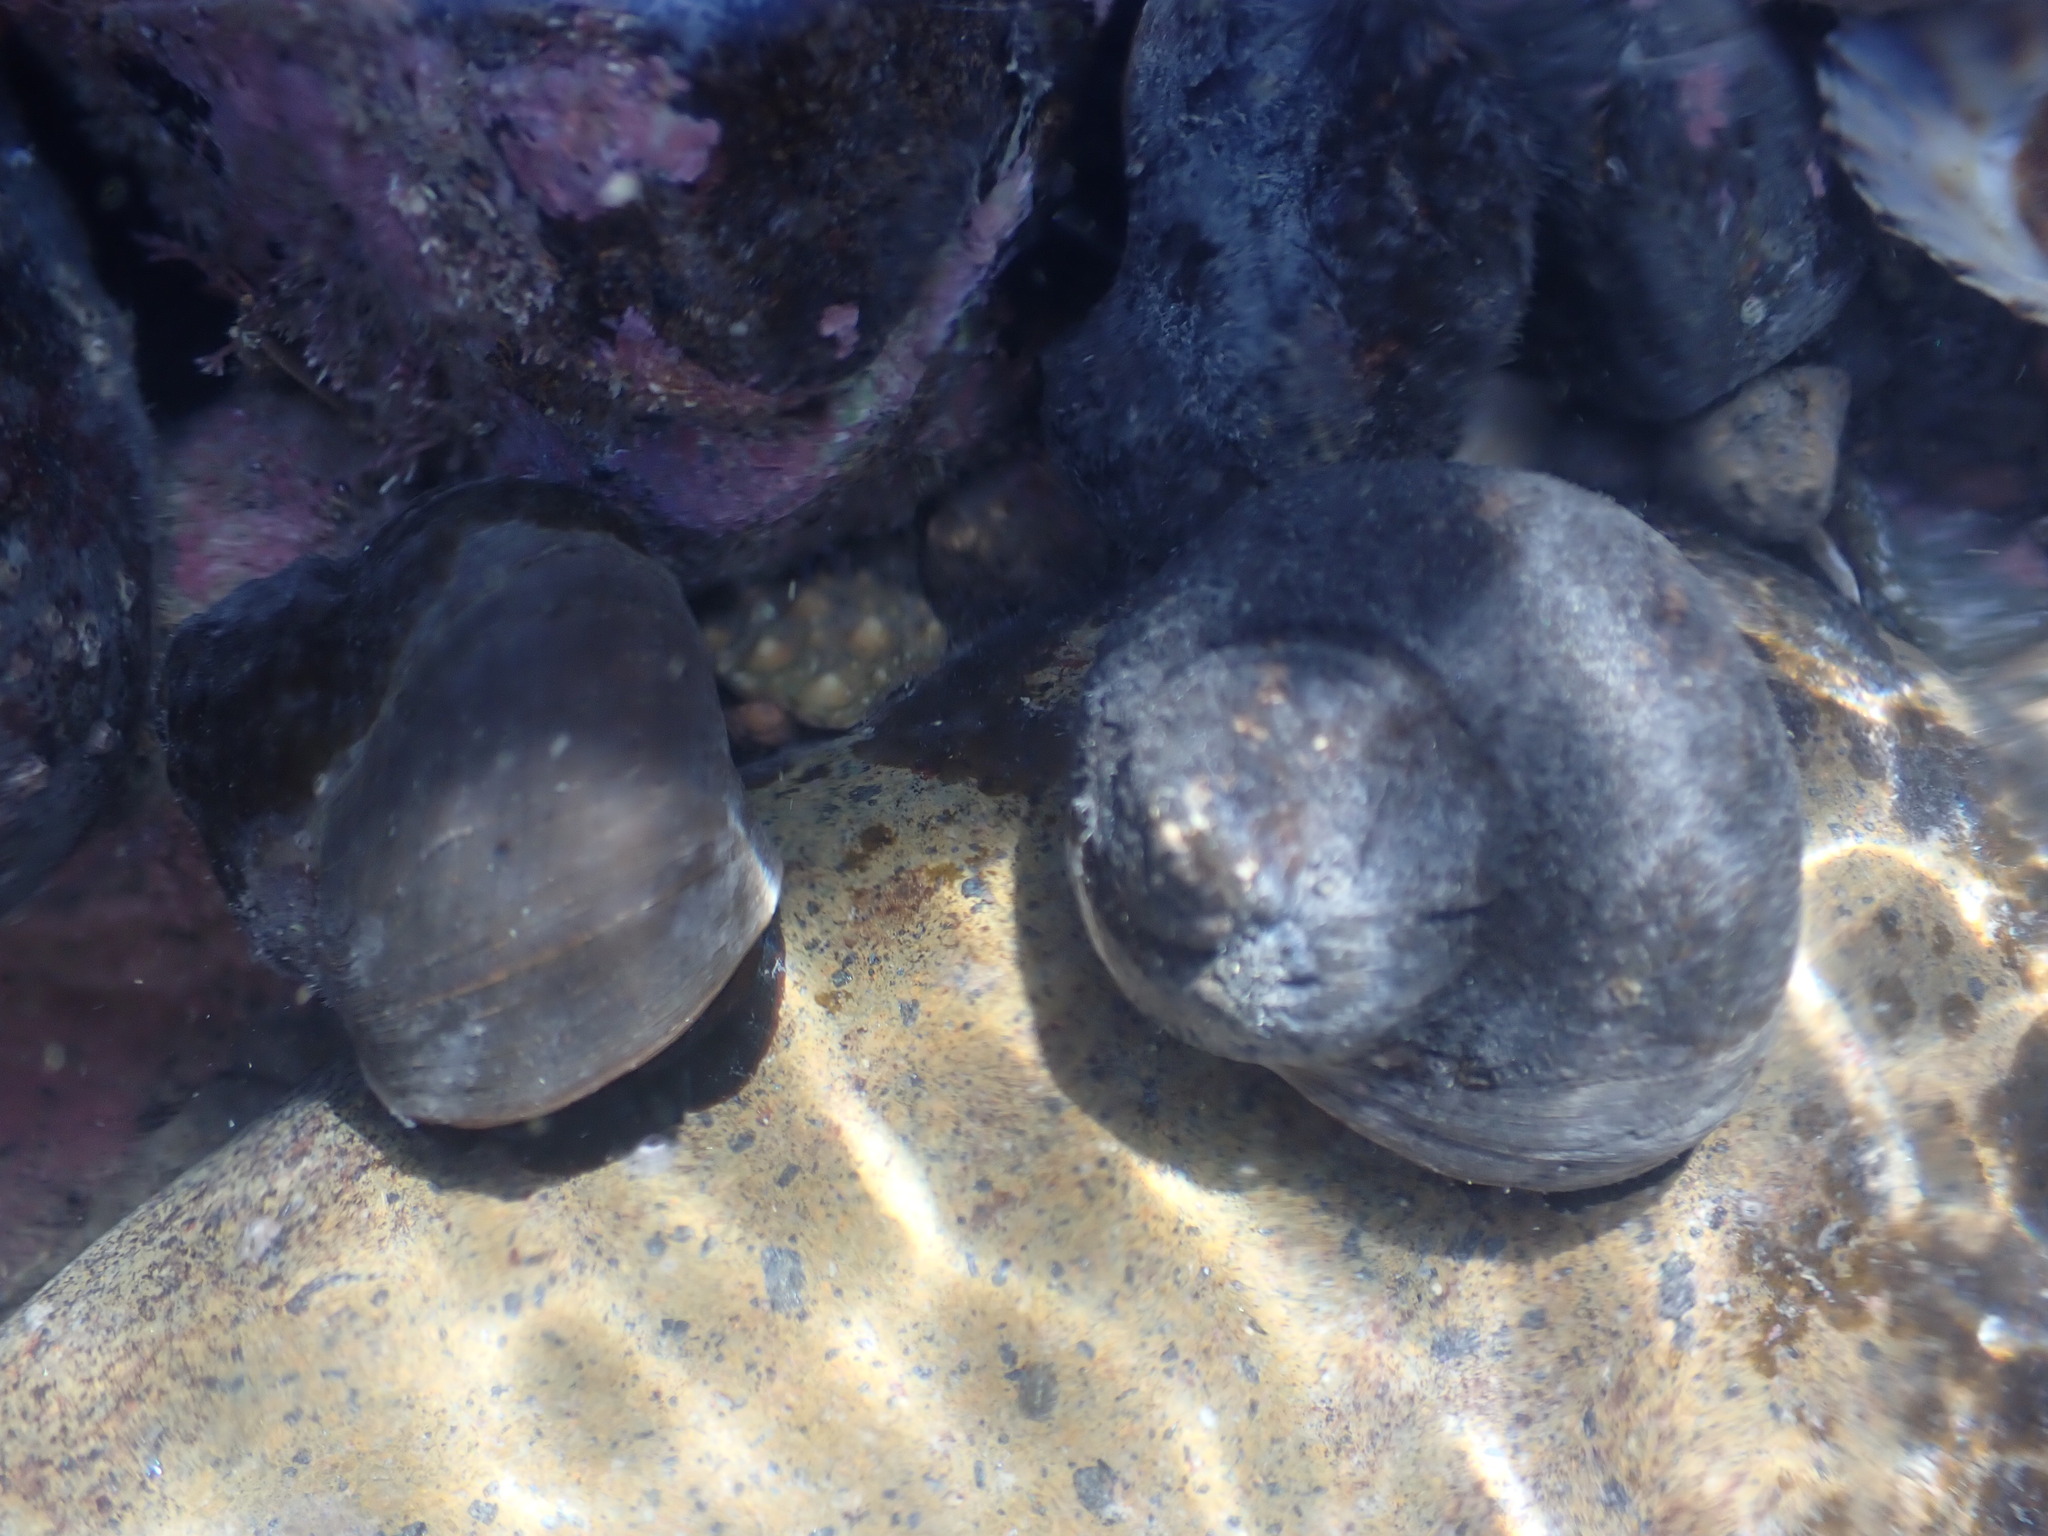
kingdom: Animalia
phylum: Mollusca
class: Gastropoda
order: Trochida
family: Turbinidae
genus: Lunella
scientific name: Lunella smaragda
